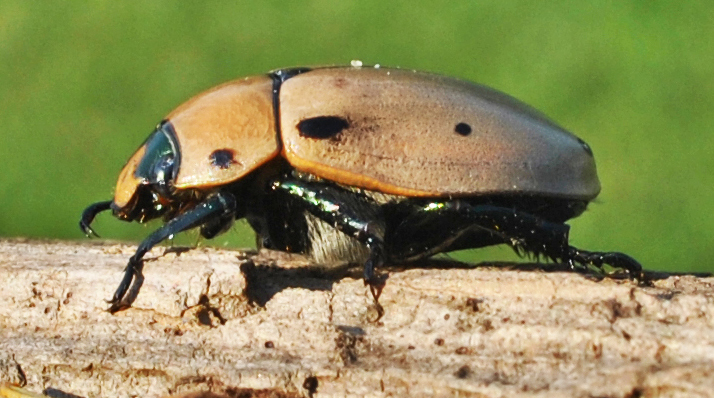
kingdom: Animalia
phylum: Arthropoda
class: Insecta
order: Coleoptera
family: Scarabaeidae
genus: Pelidnota
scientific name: Pelidnota punctata
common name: Grapevine beetle
